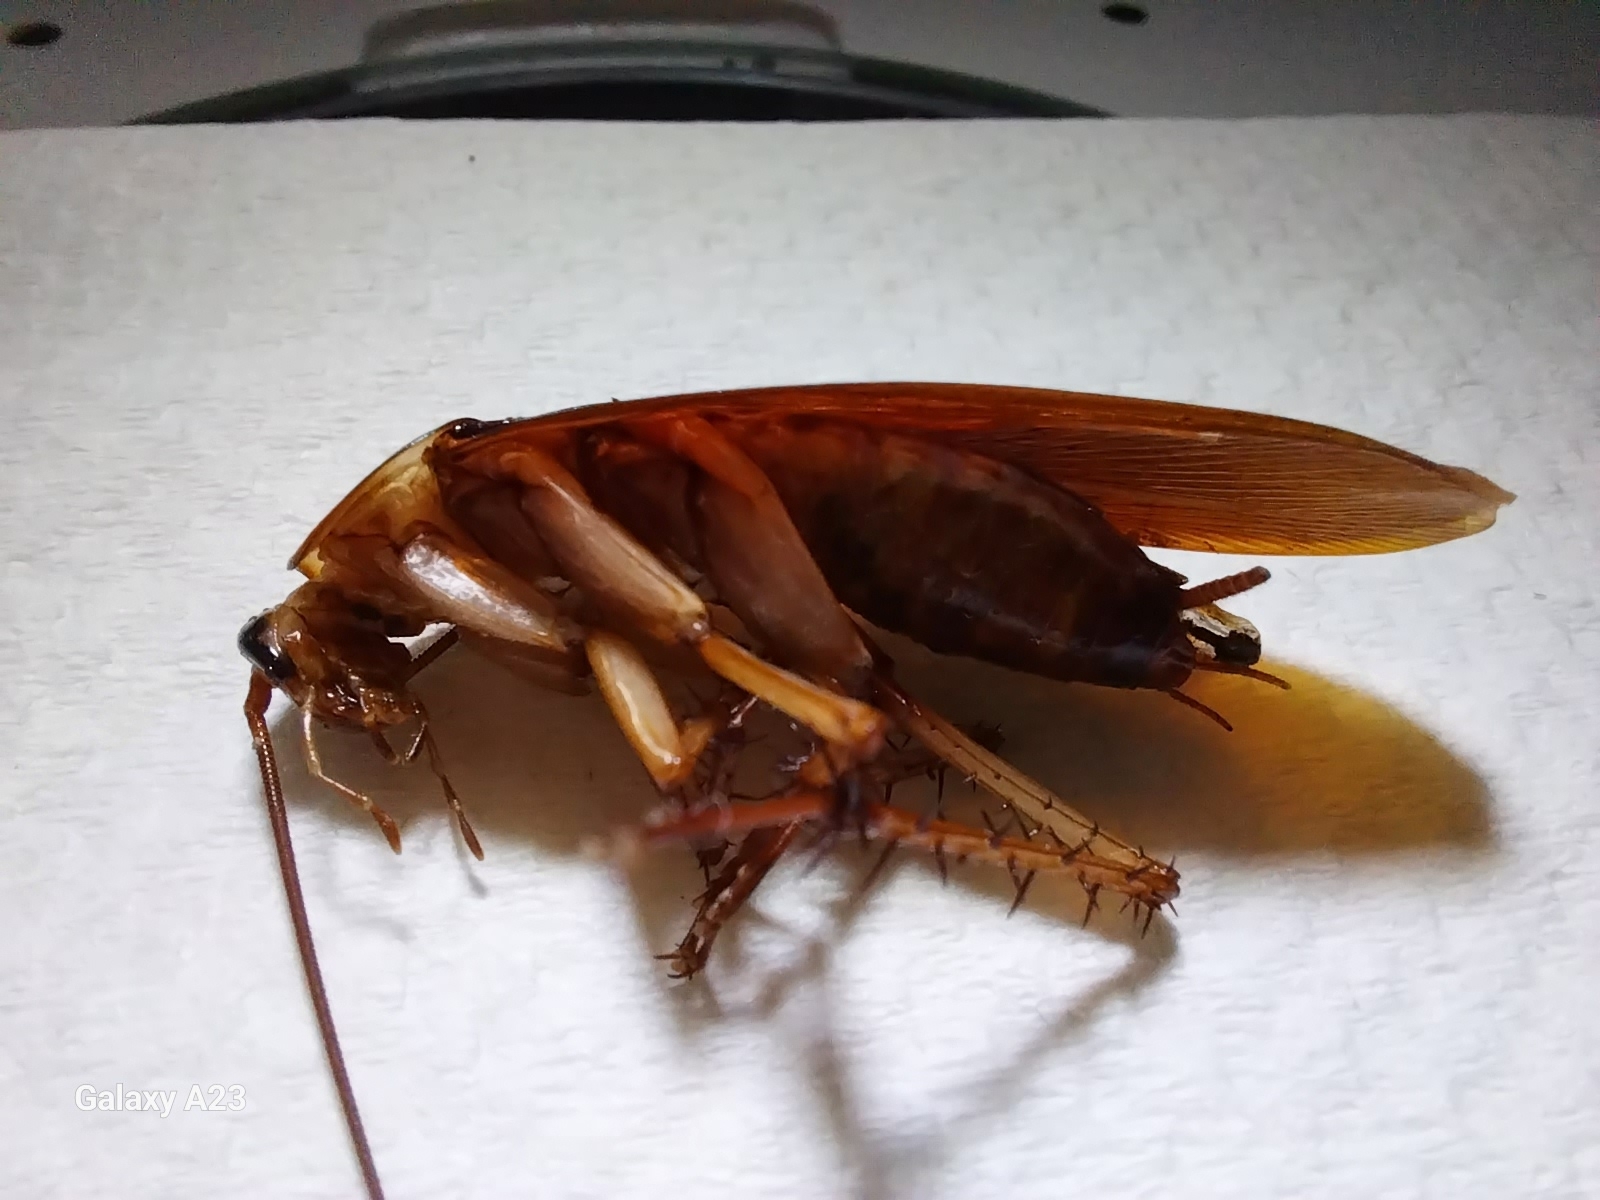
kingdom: Animalia
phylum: Arthropoda
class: Insecta
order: Blattodea
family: Blattidae
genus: Periplaneta
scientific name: Periplaneta americana
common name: American cockroach
